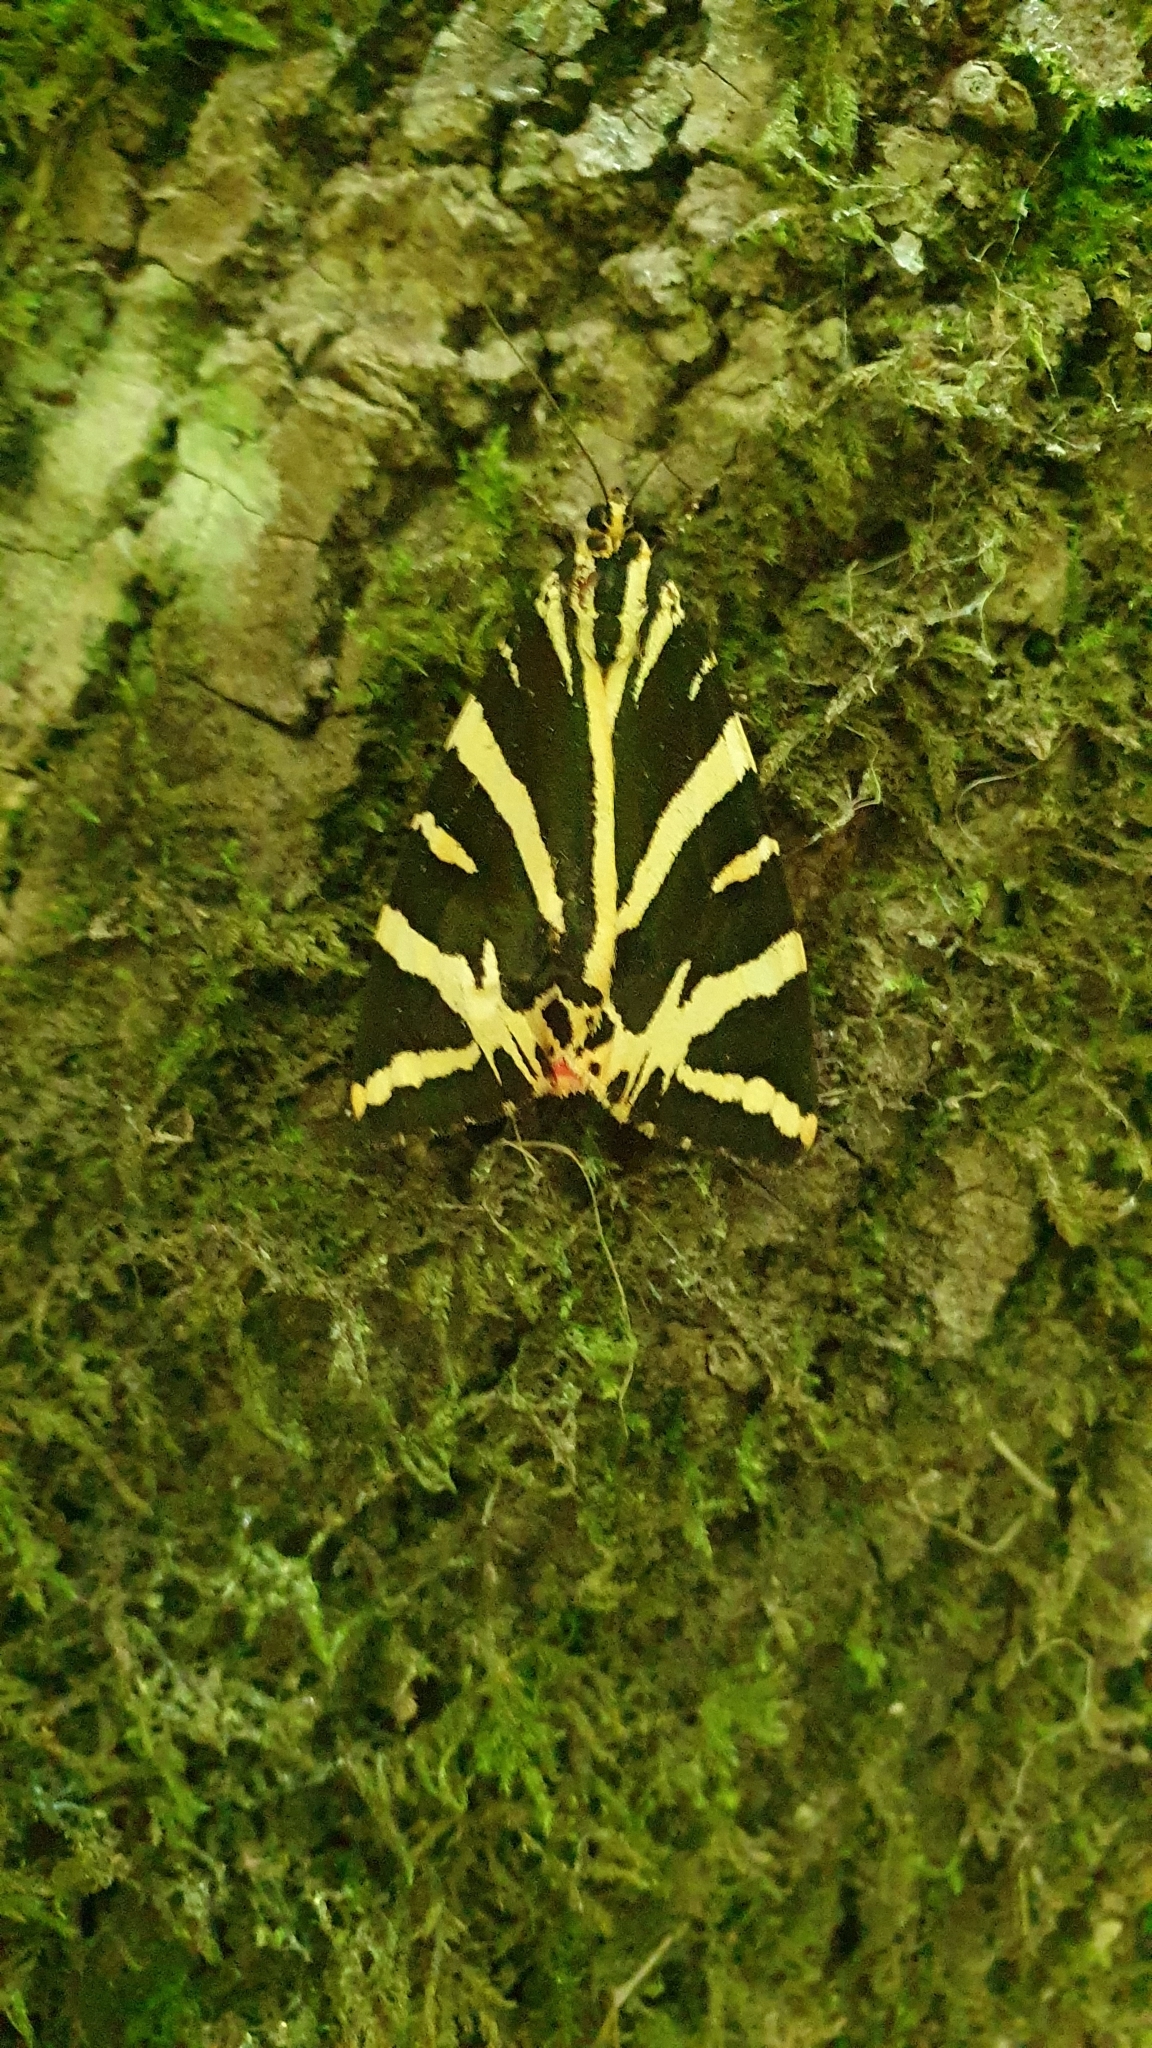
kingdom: Animalia
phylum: Arthropoda
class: Insecta
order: Lepidoptera
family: Erebidae
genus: Euplagia
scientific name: Euplagia quadripunctaria
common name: Jersey tiger
